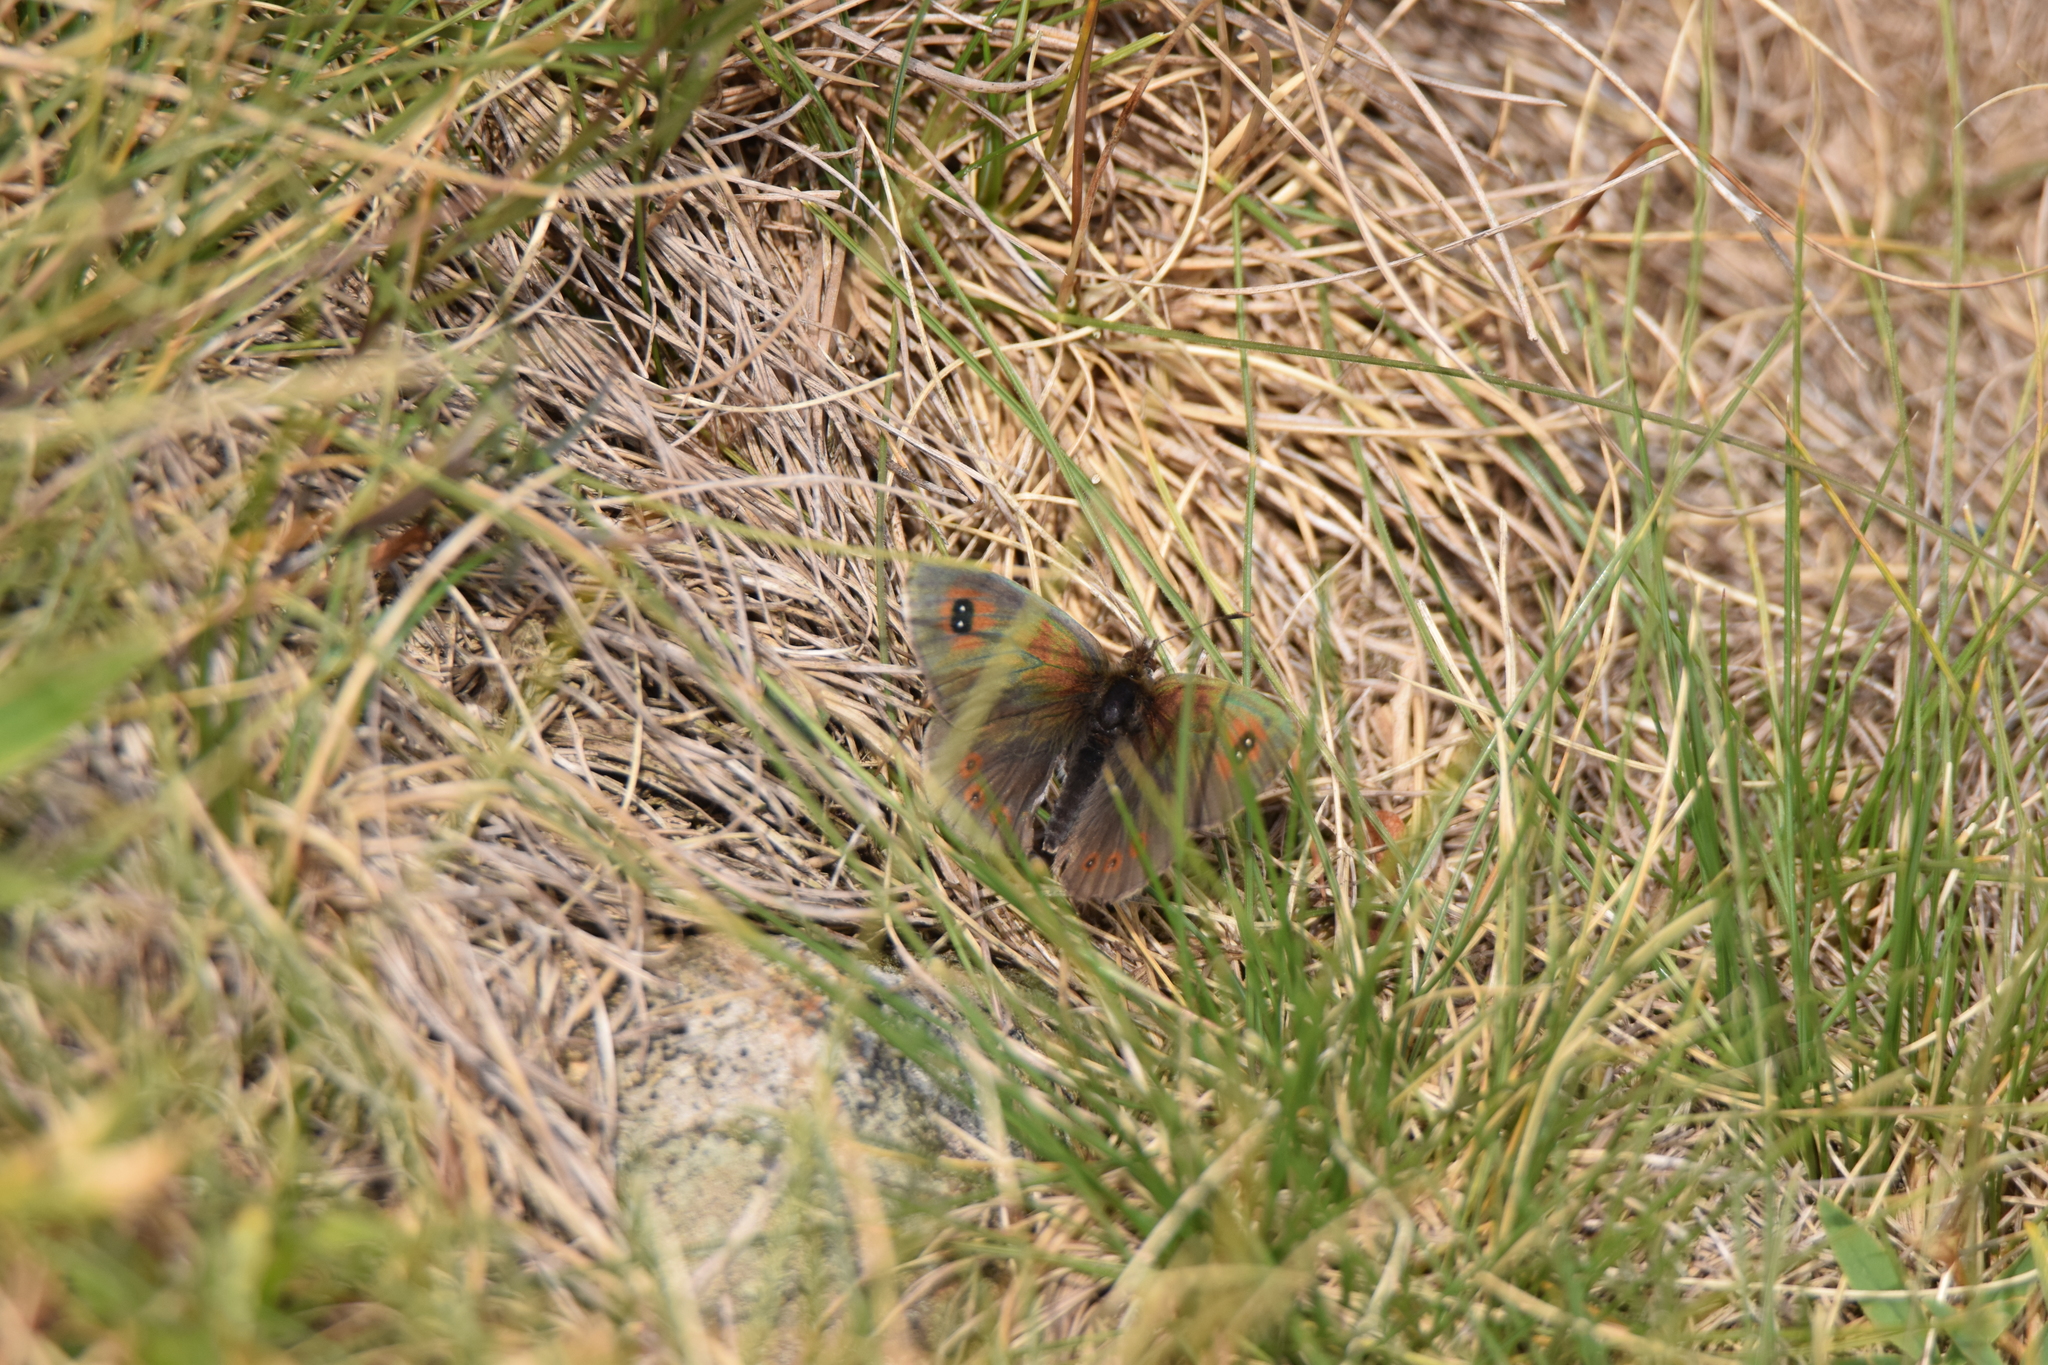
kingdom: Animalia
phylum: Arthropoda
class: Insecta
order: Lepidoptera
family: Nymphalidae
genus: Erebia
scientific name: Erebia cassioides
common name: Common brassy ringlet
